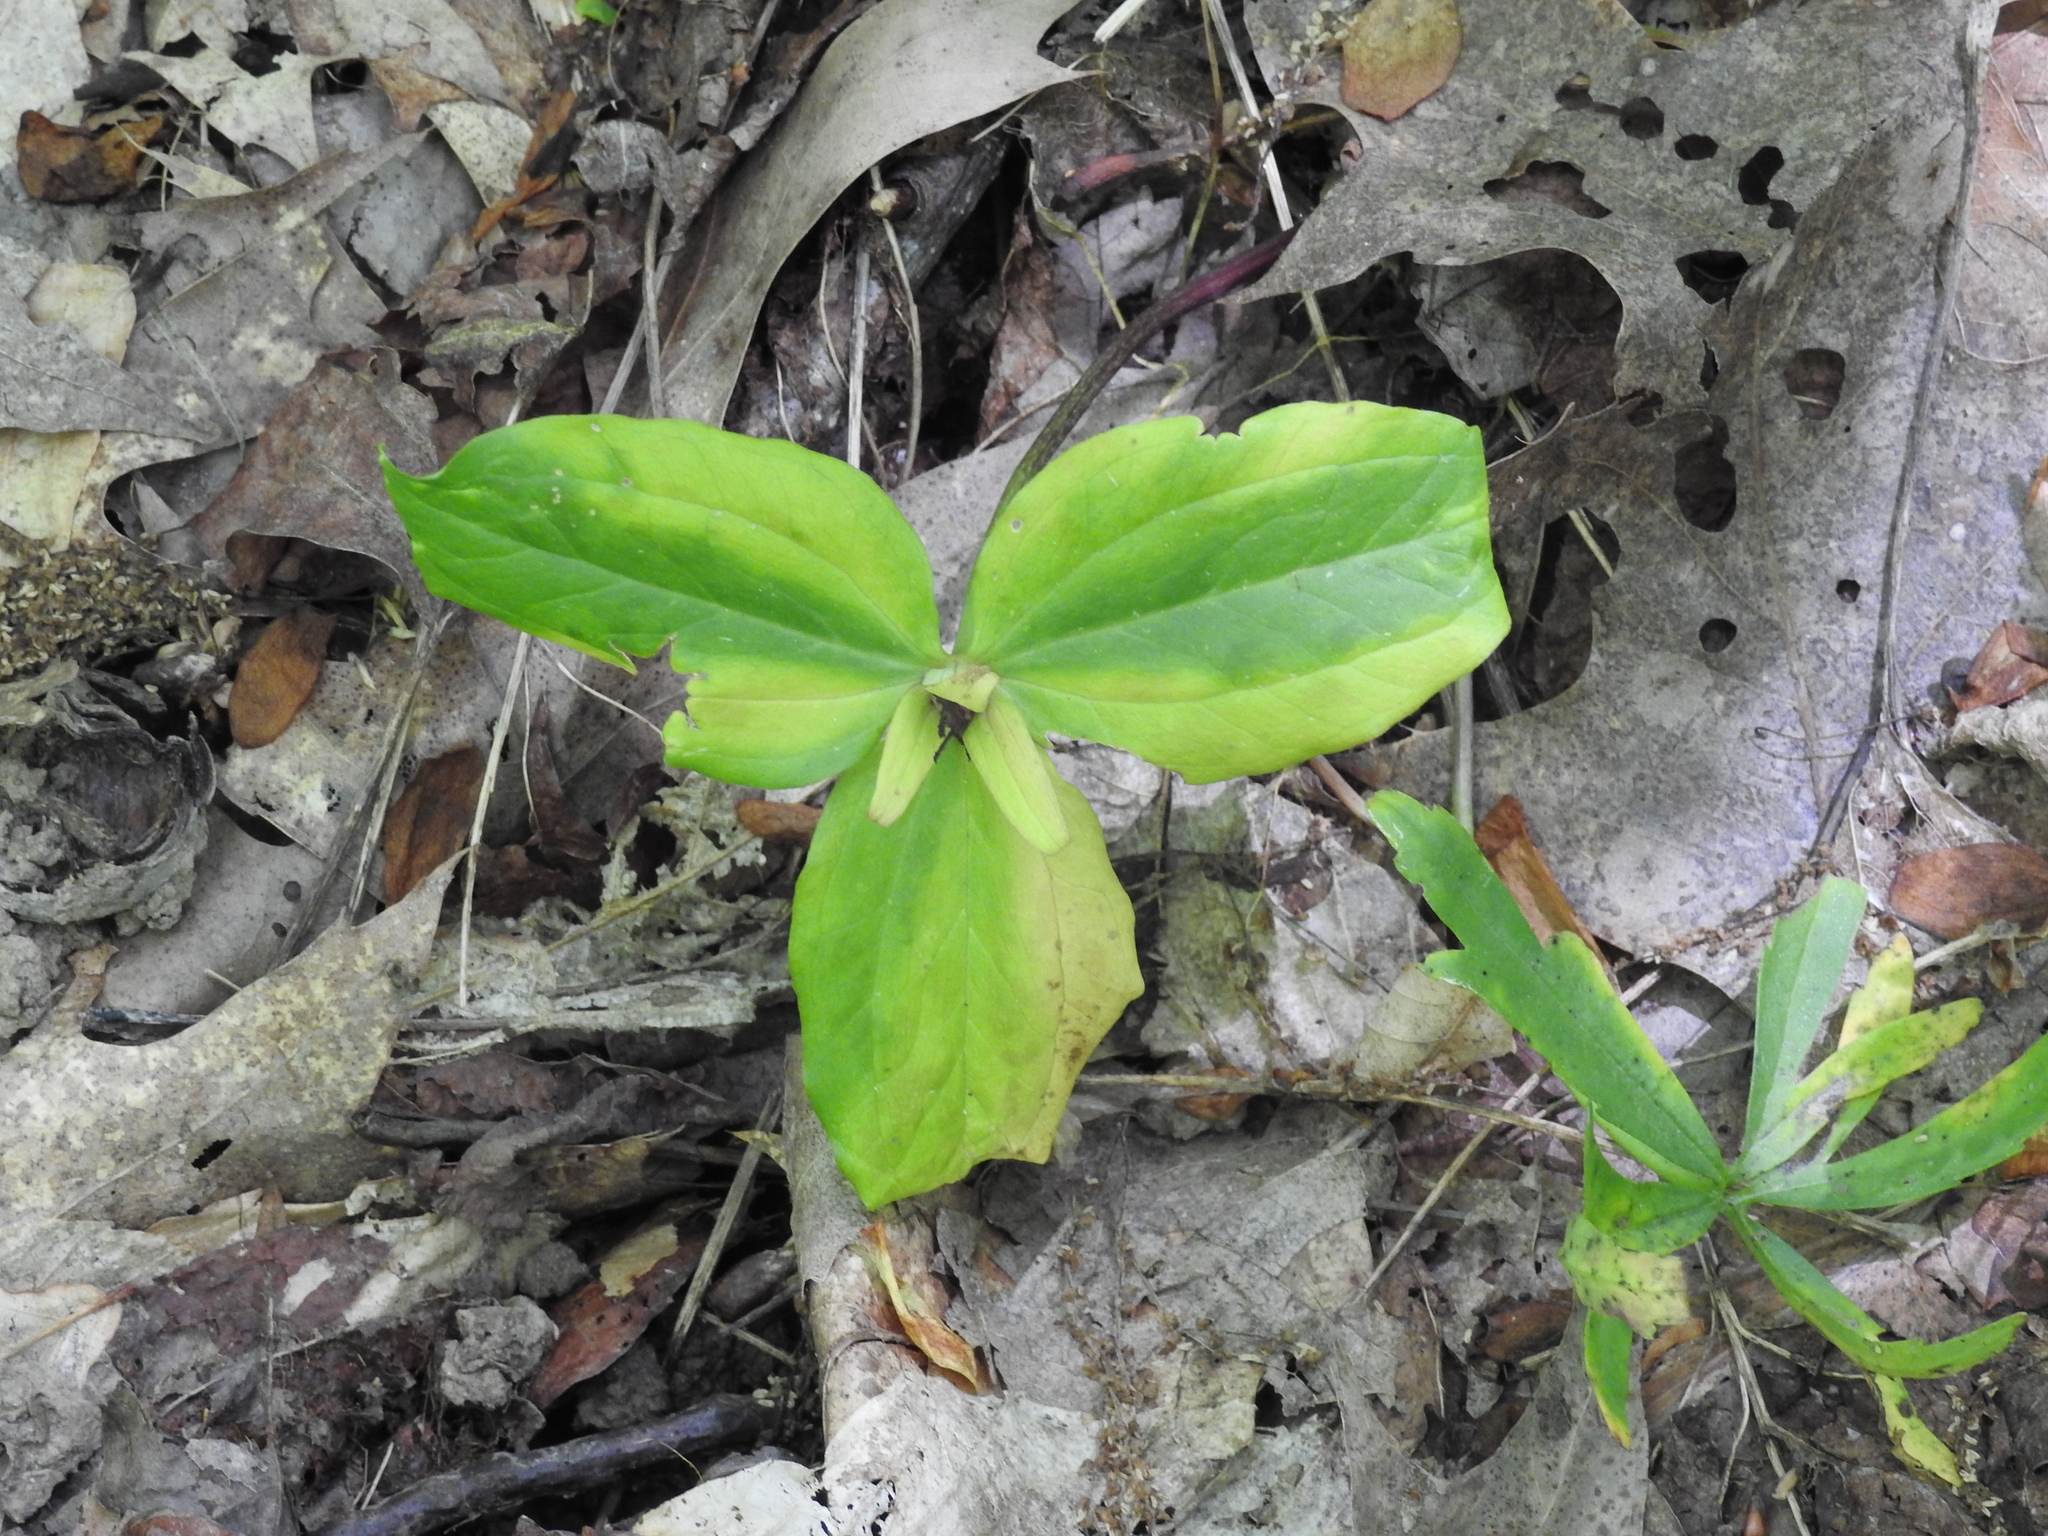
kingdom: Plantae
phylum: Tracheophyta
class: Liliopsida
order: Liliales
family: Melanthiaceae
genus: Trillium
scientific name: Trillium sessile
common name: Sessile trillium
